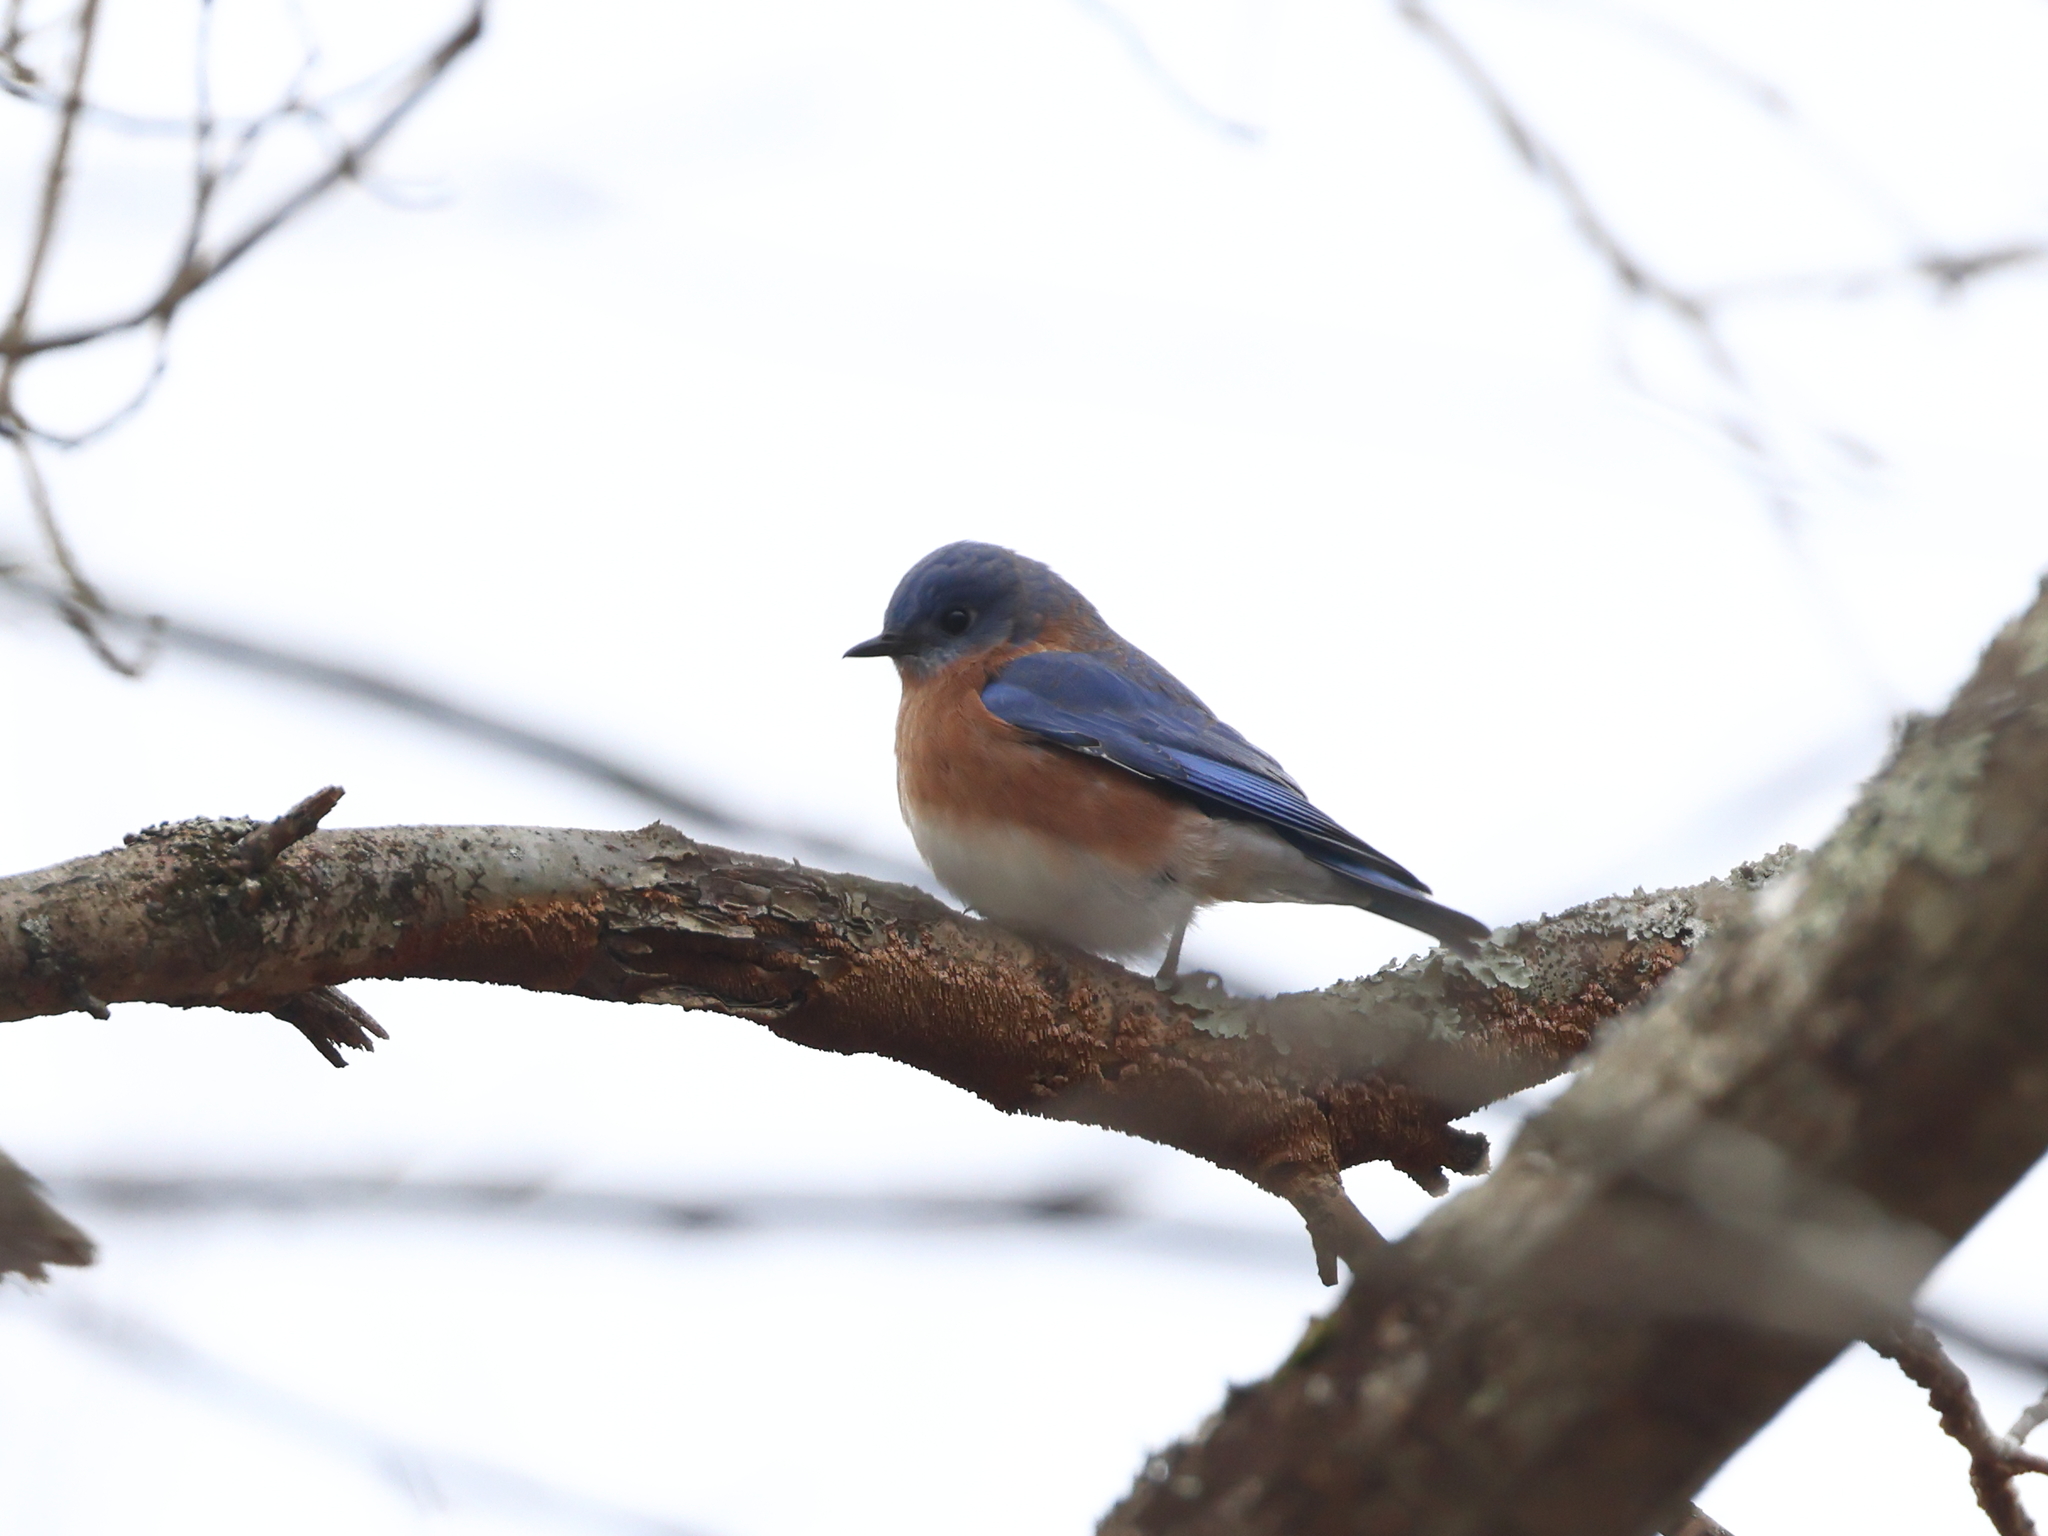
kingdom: Animalia
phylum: Chordata
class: Aves
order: Passeriformes
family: Turdidae
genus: Sialia
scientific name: Sialia sialis
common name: Eastern bluebird
